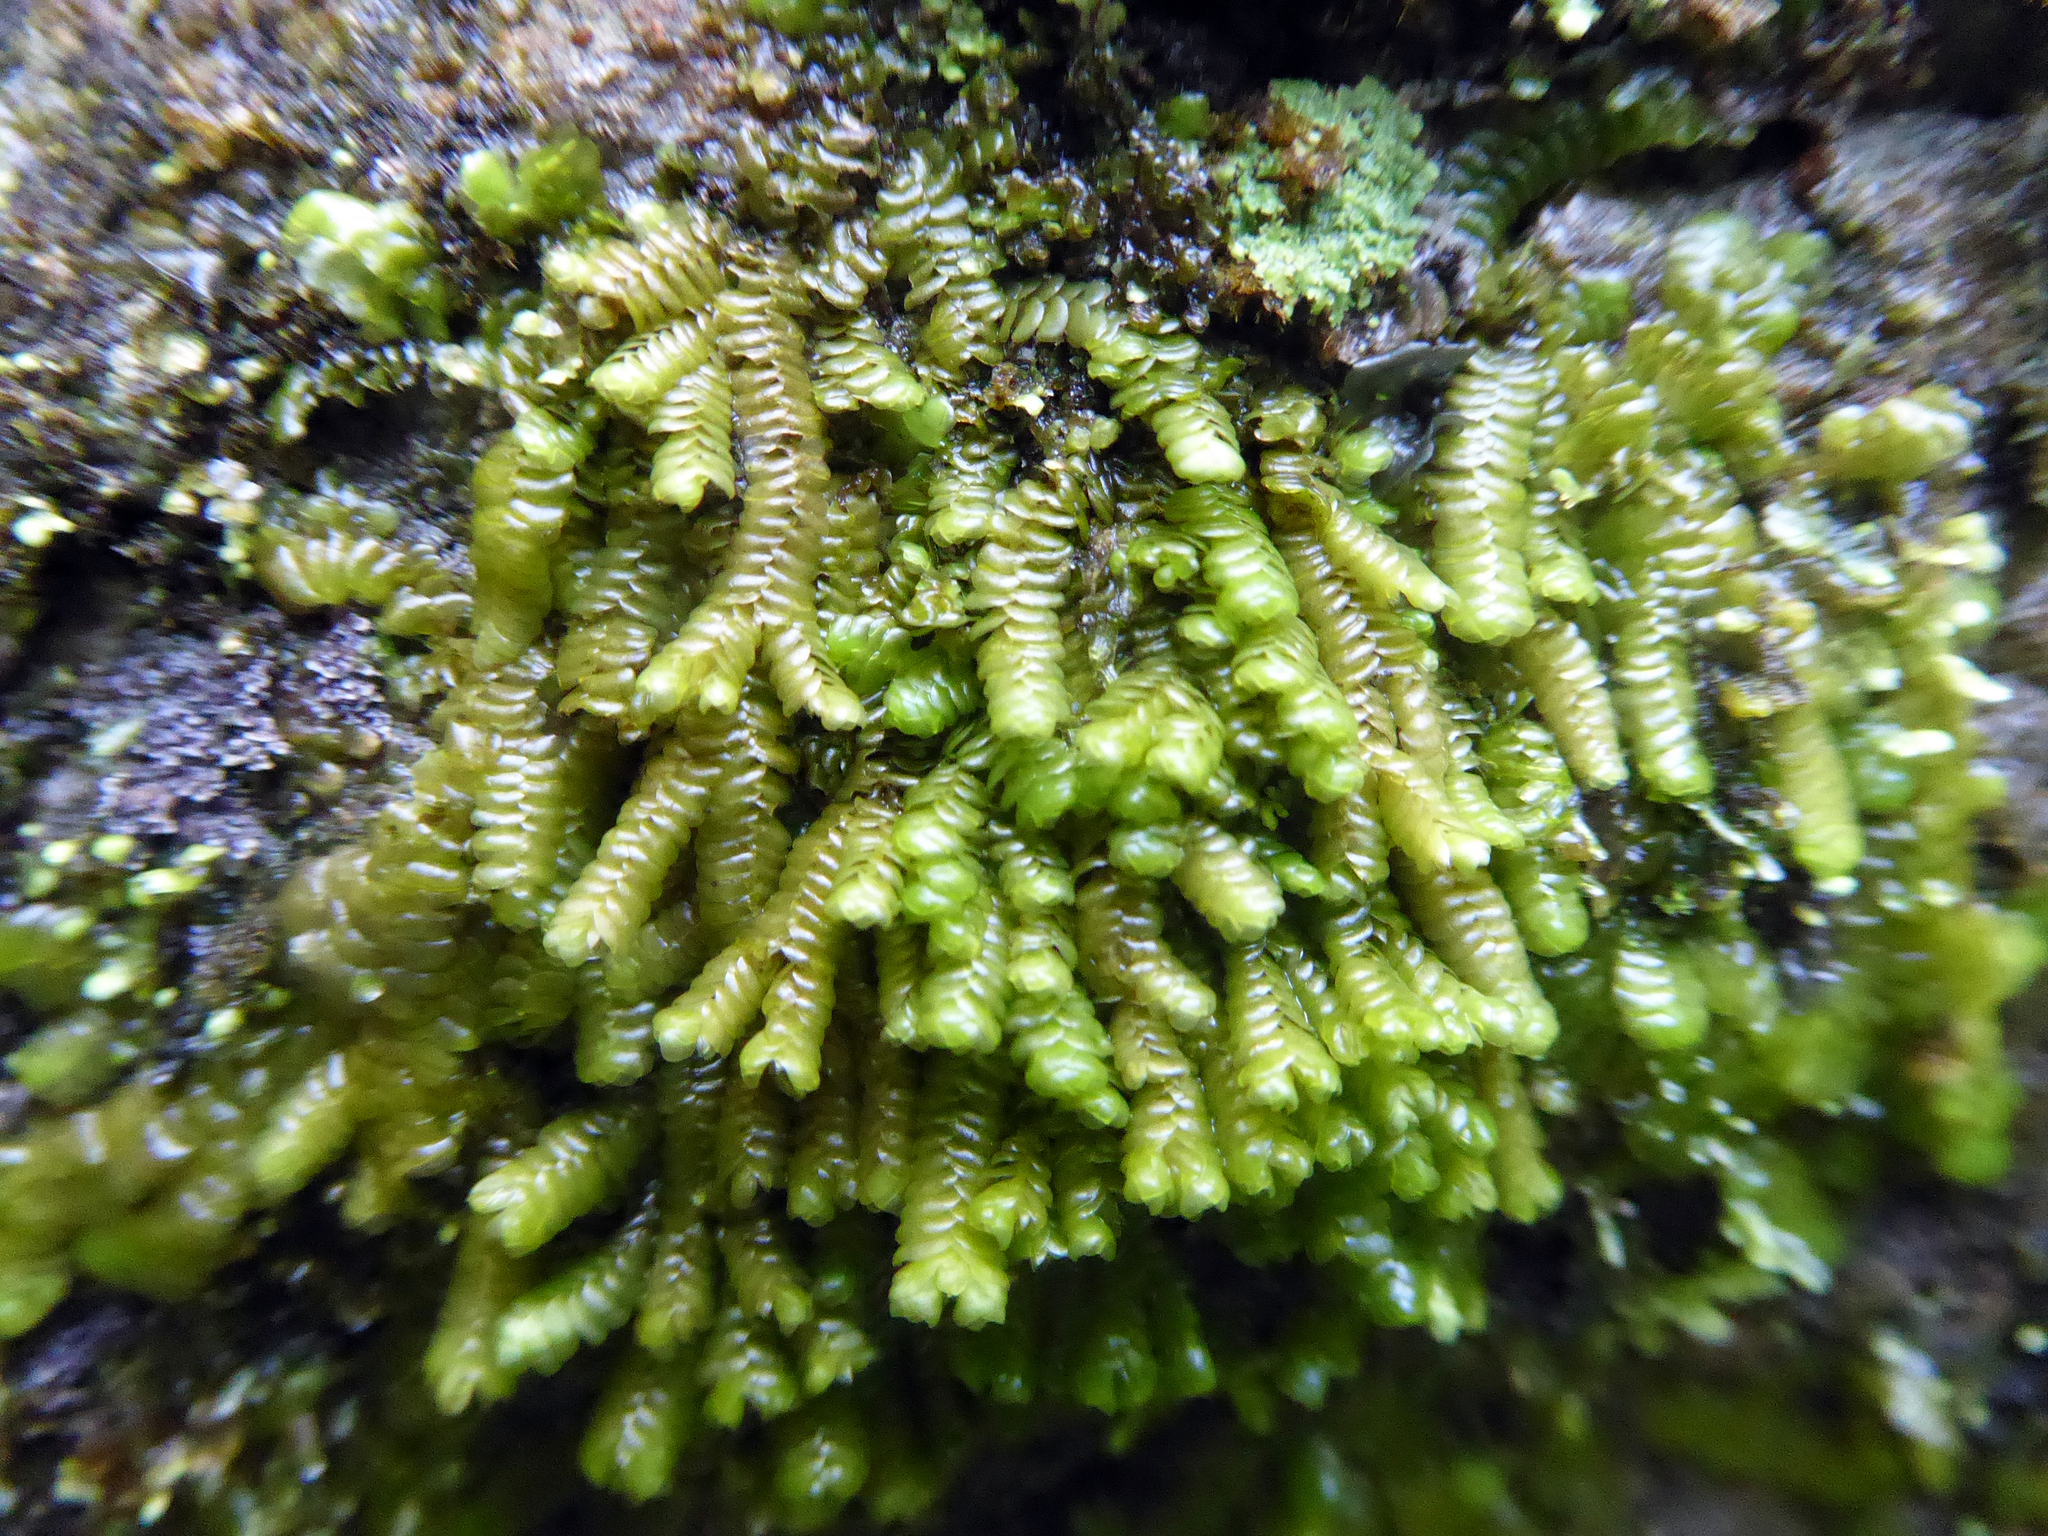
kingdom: Plantae
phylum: Marchantiophyta
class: Jungermanniopsida
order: Porellales
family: Lejeuneaceae
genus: Spruceanthus
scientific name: Spruceanthus olivaceus
